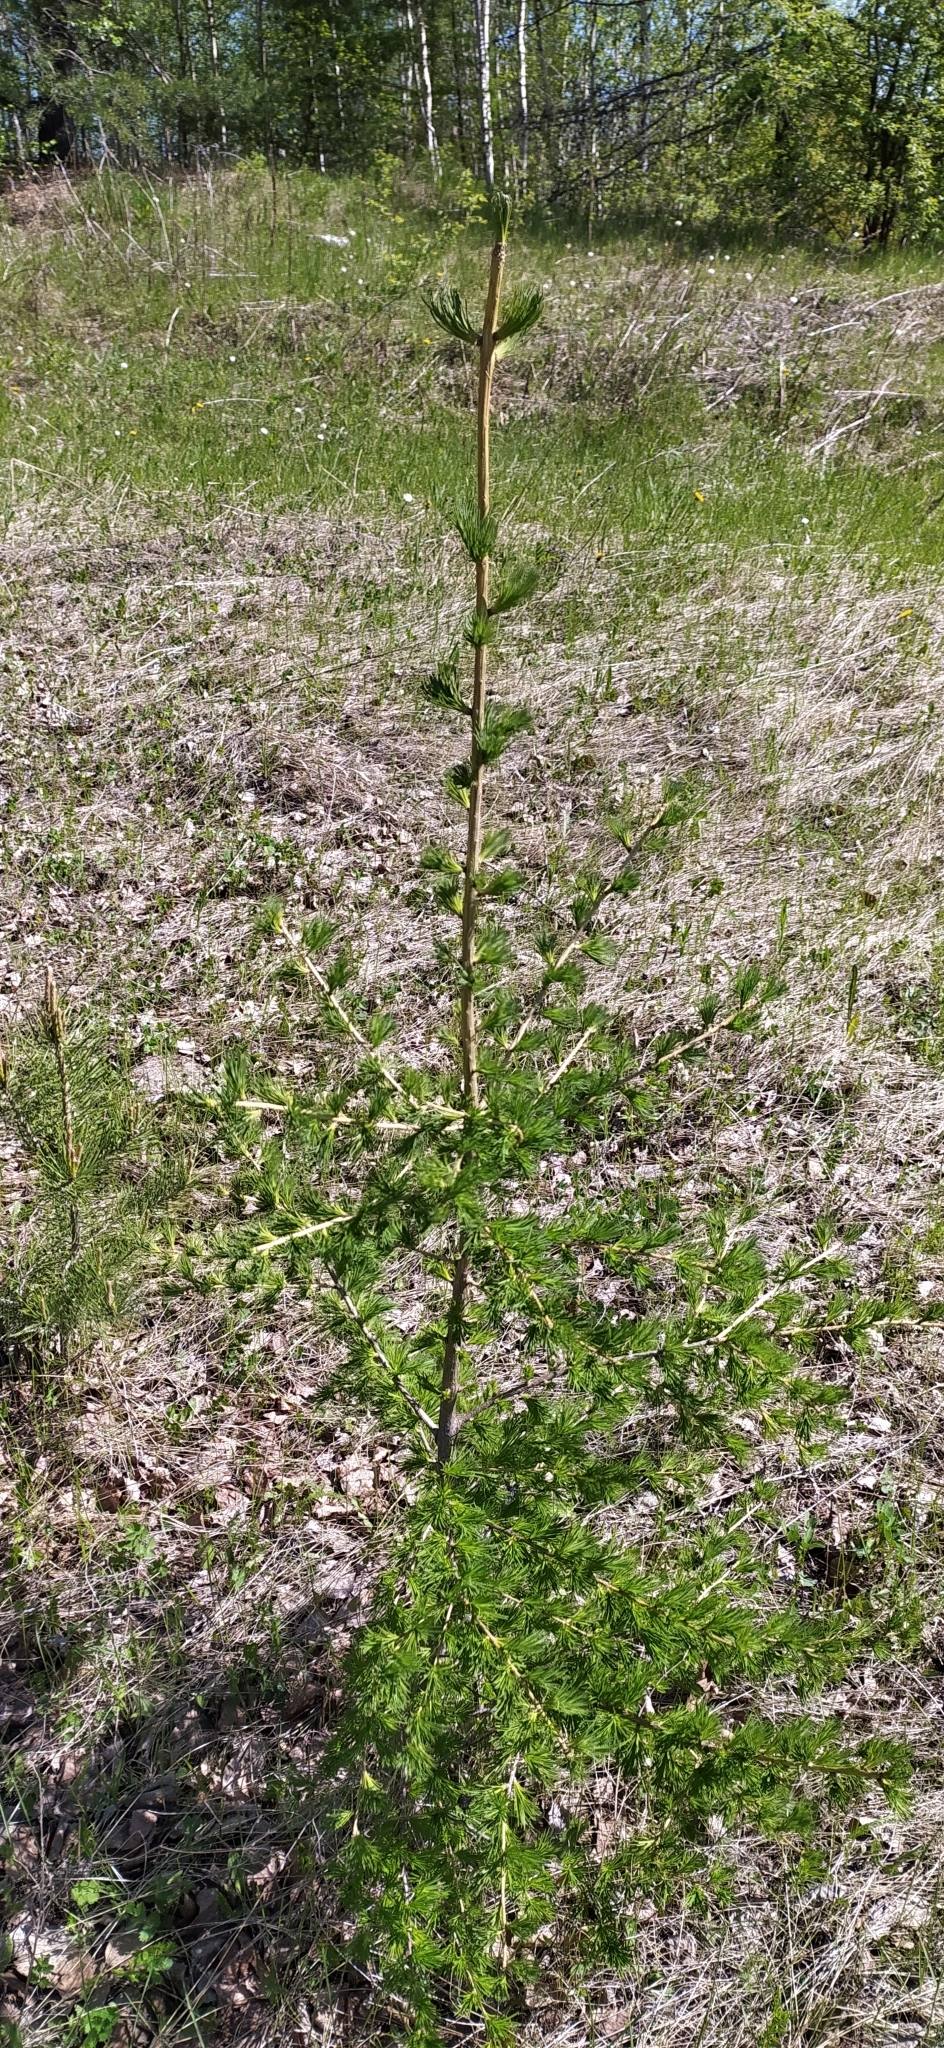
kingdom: Plantae
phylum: Tracheophyta
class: Pinopsida
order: Pinales
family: Pinaceae
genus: Larix
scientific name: Larix sibirica
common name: Siberian larch
